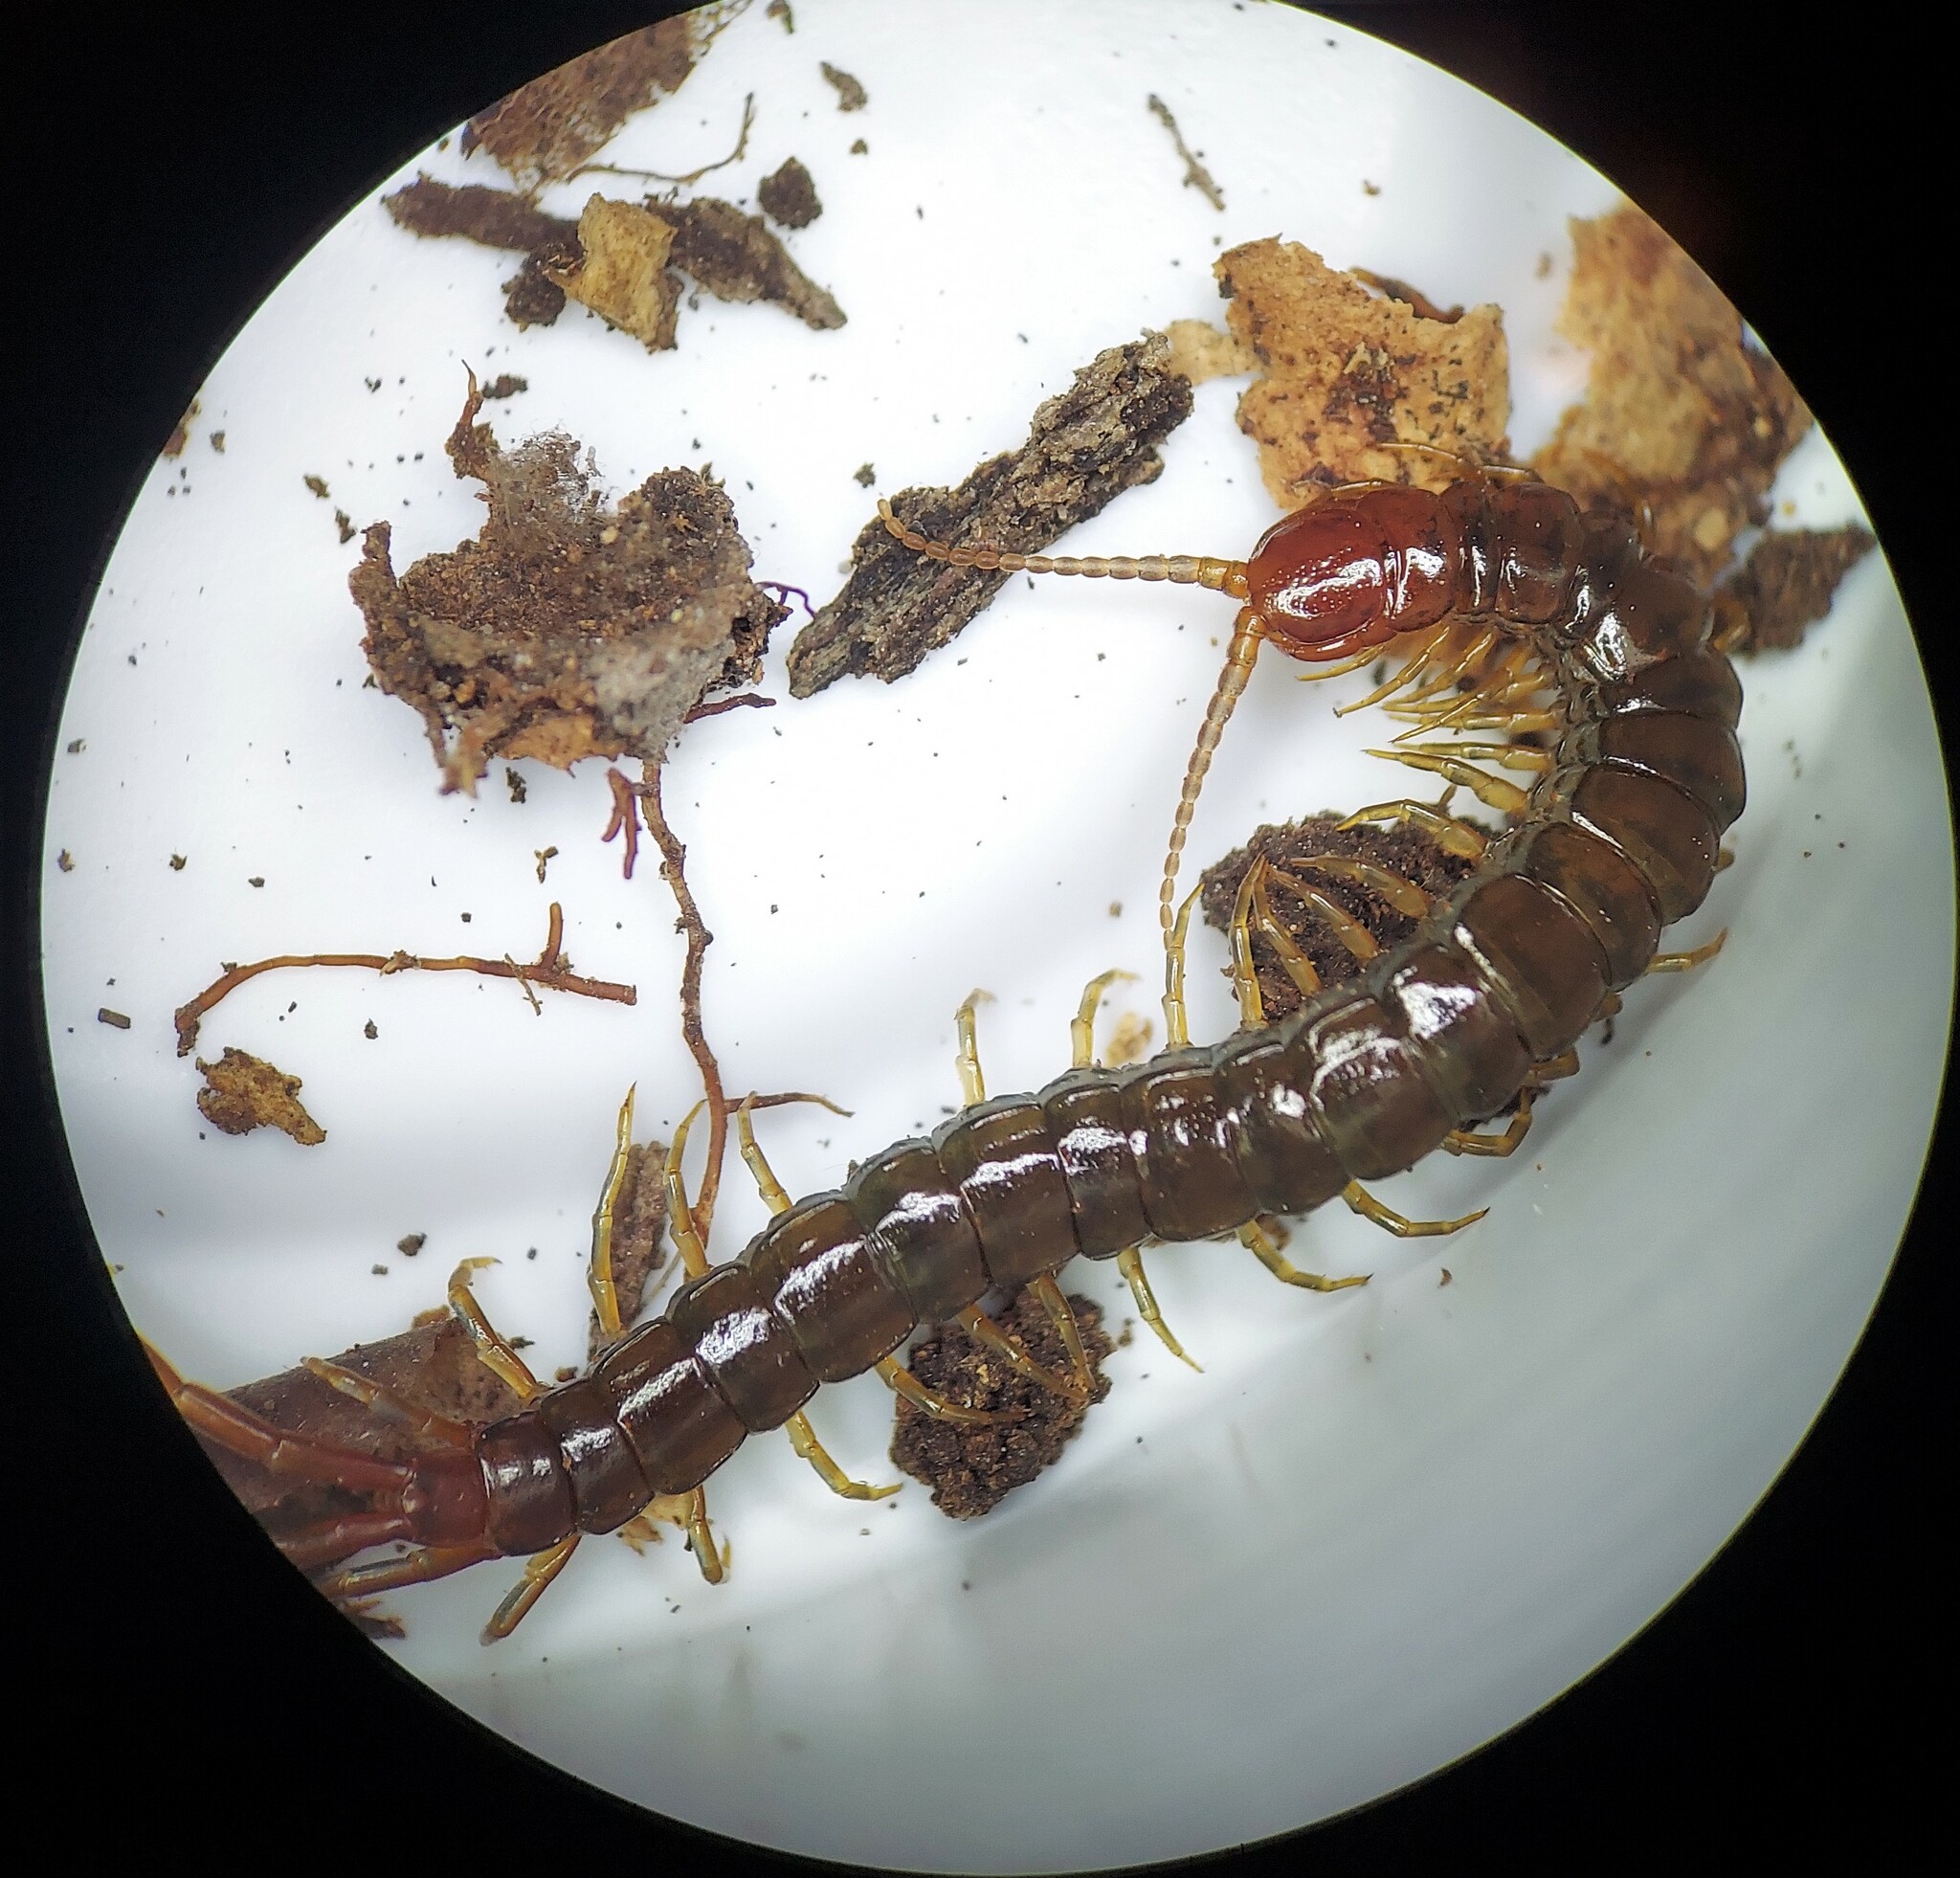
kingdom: Animalia
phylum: Arthropoda
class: Chilopoda
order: Scolopendromorpha
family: Scolopocryptopidae
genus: Scolopocryptops
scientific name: Scolopocryptops nigridius
